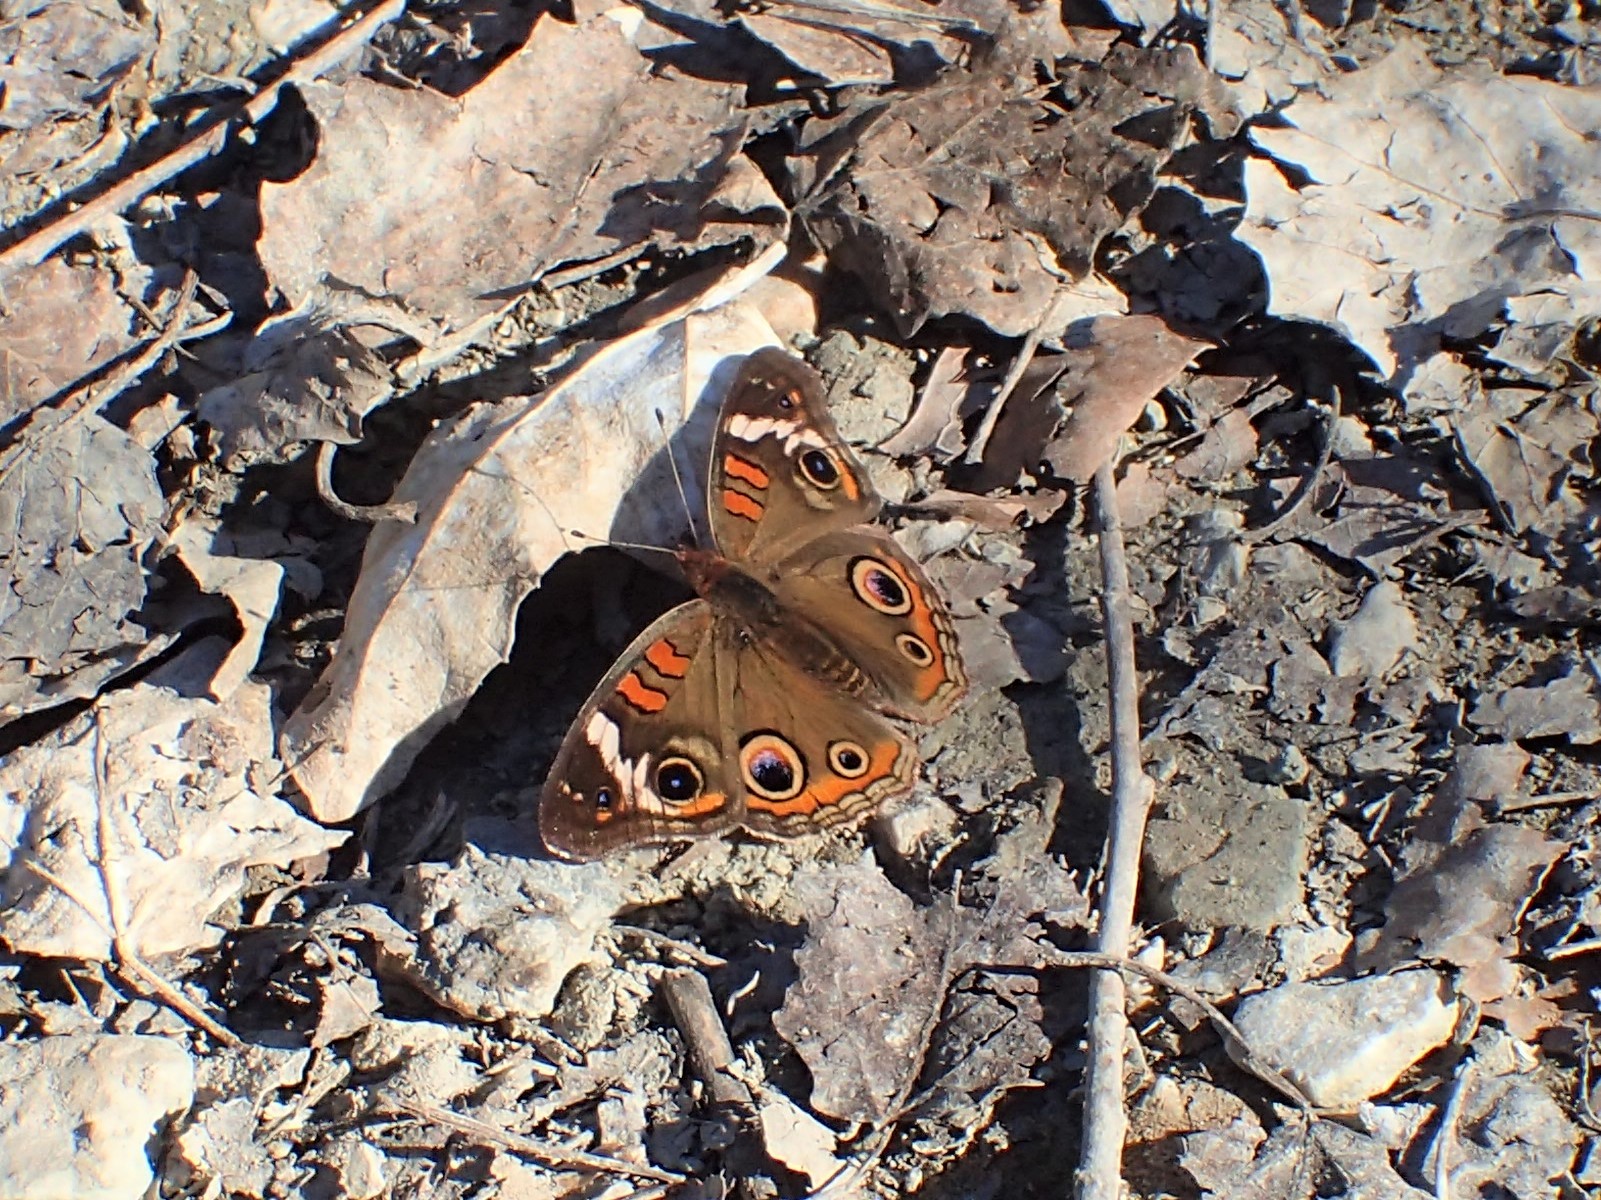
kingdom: Animalia
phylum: Arthropoda
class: Insecta
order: Lepidoptera
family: Nymphalidae
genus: Junonia
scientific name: Junonia coenia
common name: Common buckeye
